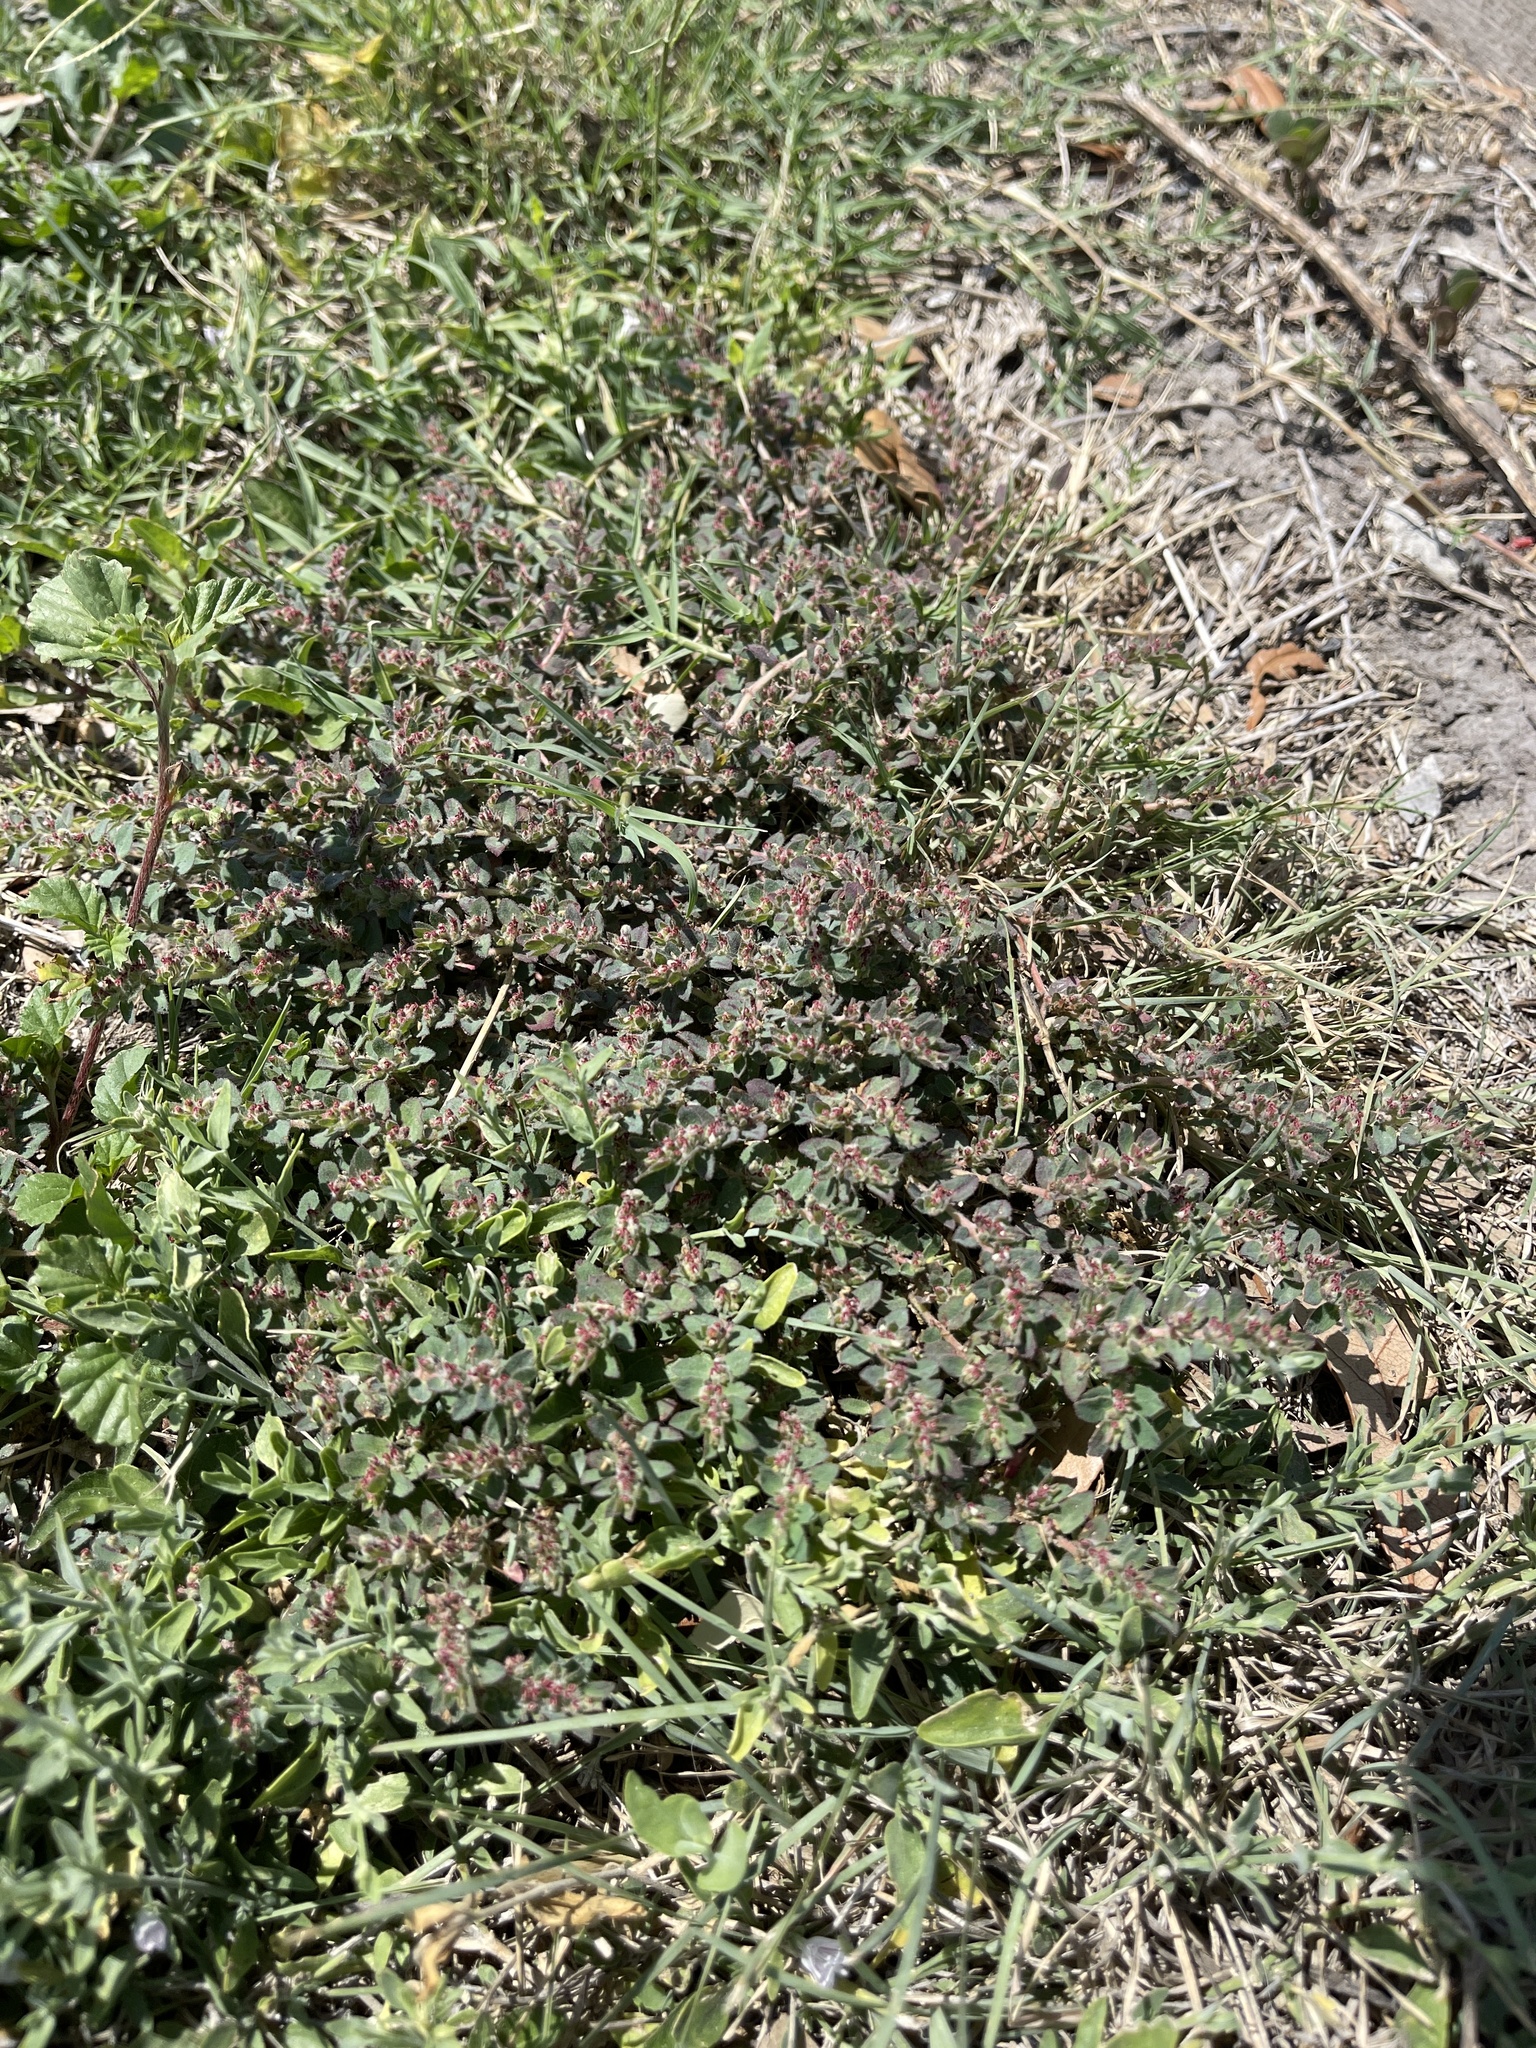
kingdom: Plantae
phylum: Tracheophyta
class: Magnoliopsida
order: Malpighiales
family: Euphorbiaceae
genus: Euphorbia
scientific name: Euphorbia velleriflora
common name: Caliche sandmat
